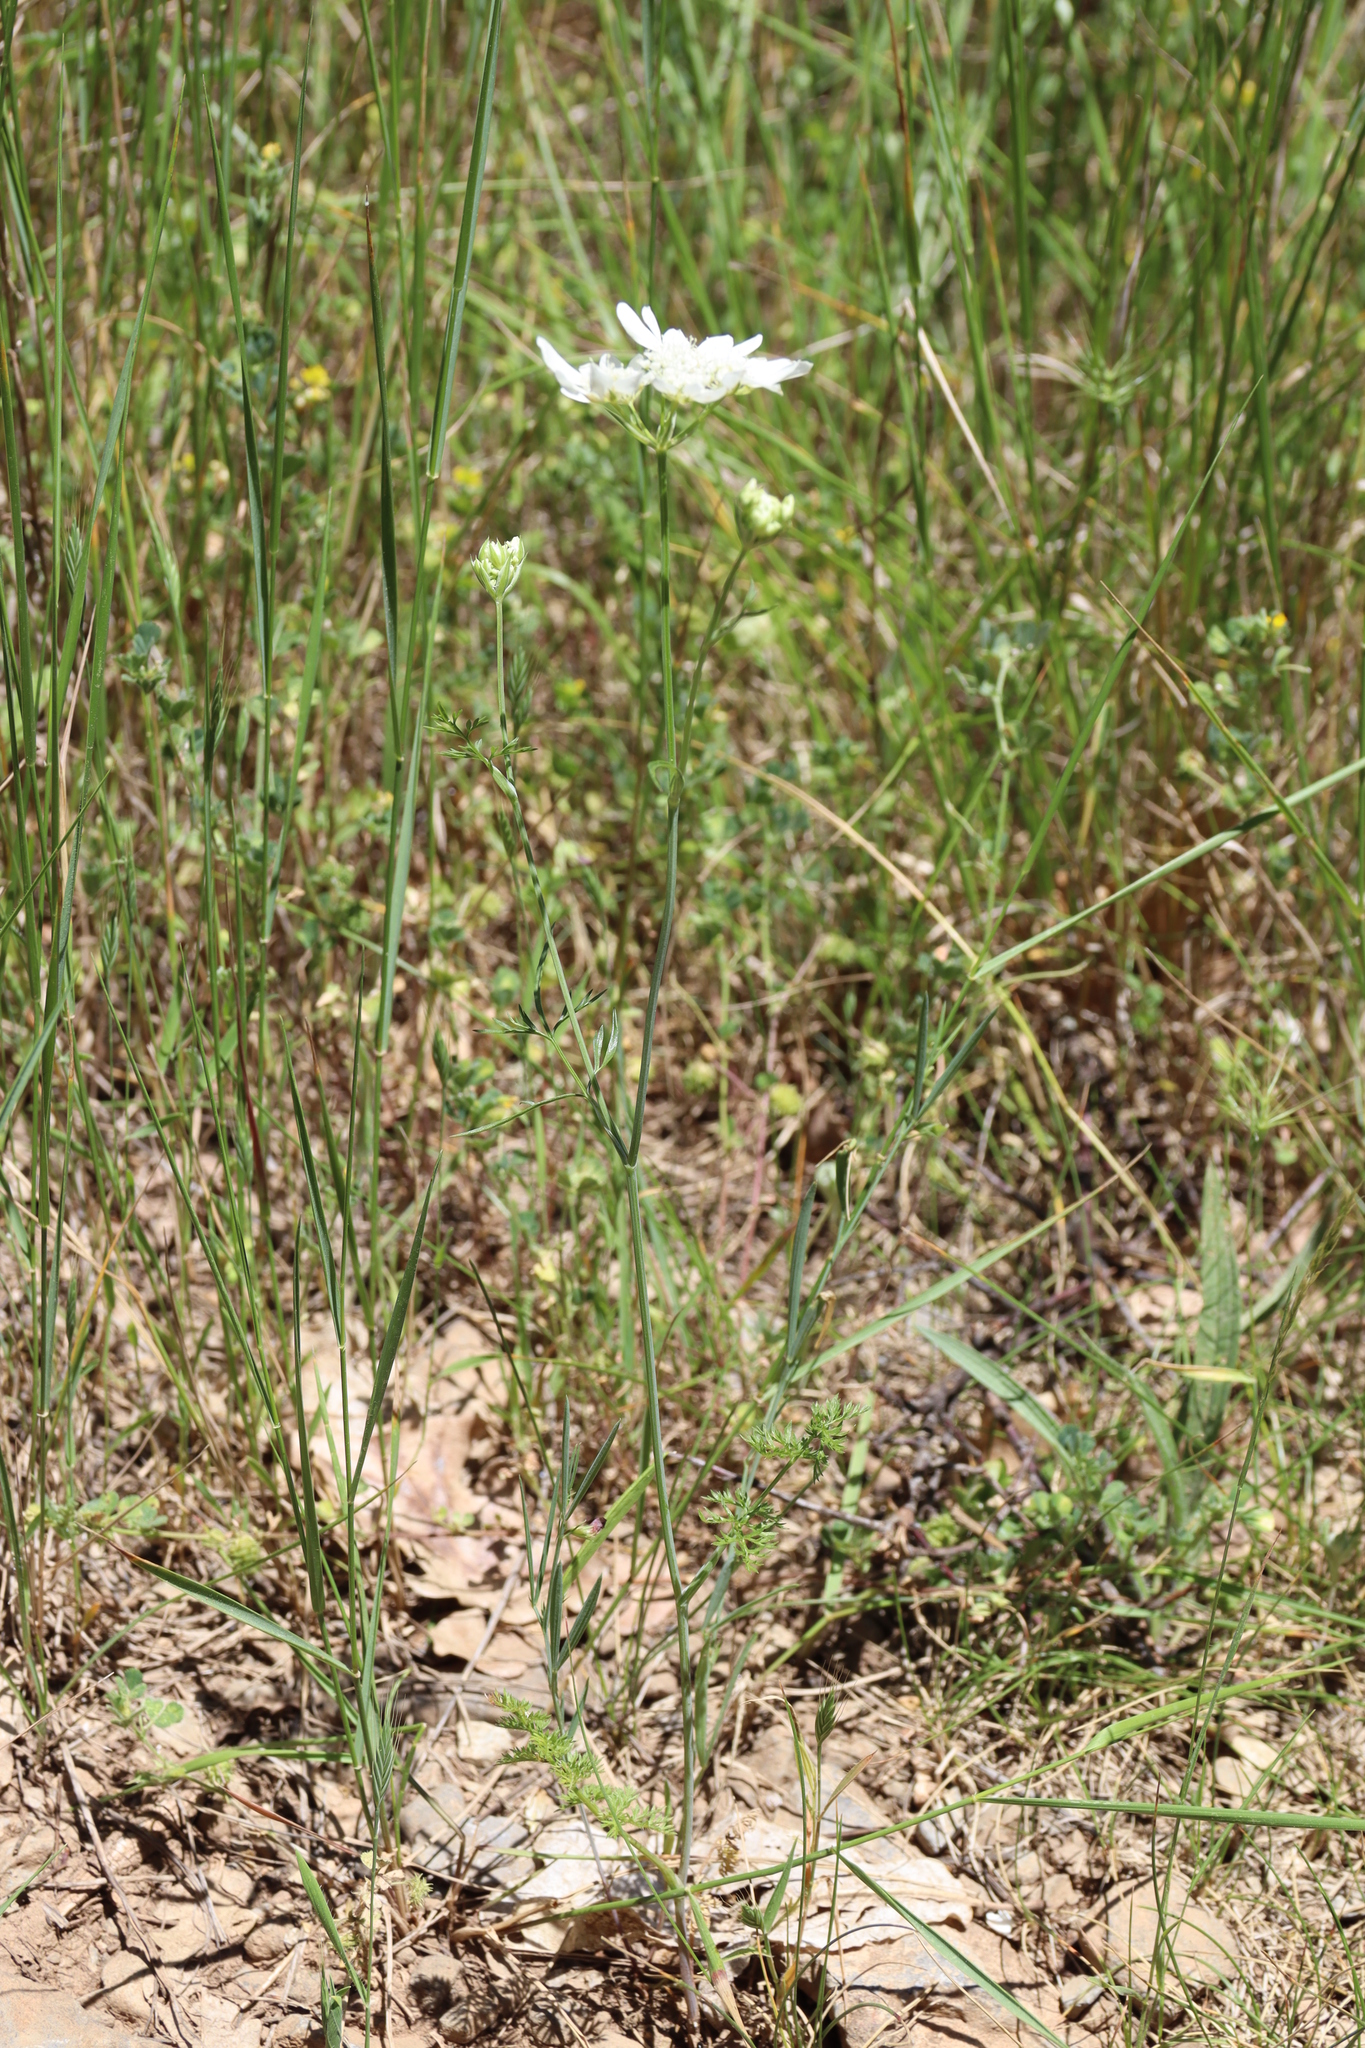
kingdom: Plantae
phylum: Tracheophyta
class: Magnoliopsida
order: Apiales
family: Apiaceae
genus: Orlaya
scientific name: Orlaya grandiflora
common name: White lace flower
